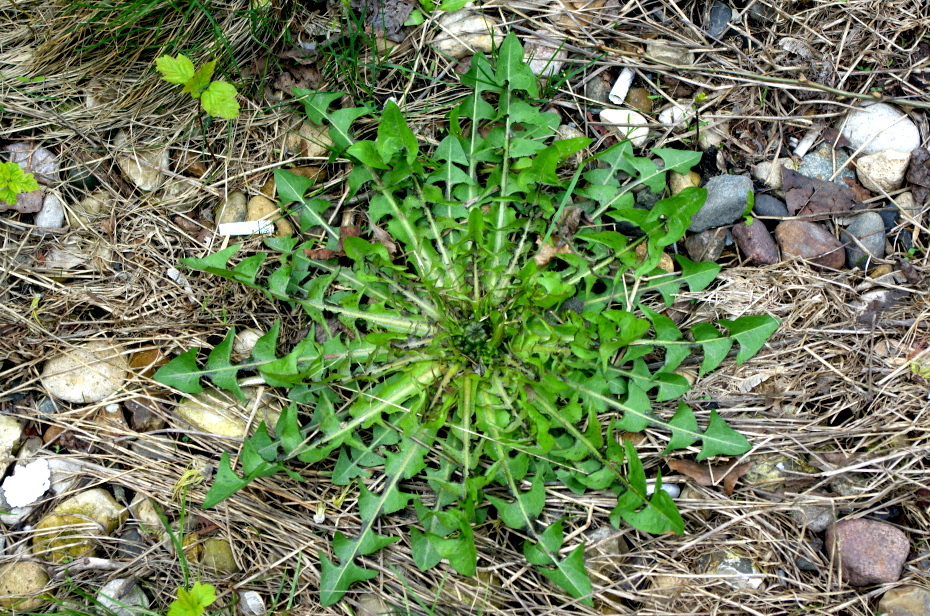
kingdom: Plantae
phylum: Tracheophyta
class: Magnoliopsida
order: Asterales
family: Asteraceae
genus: Taraxacum
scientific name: Taraxacum officinale
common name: Common dandelion
